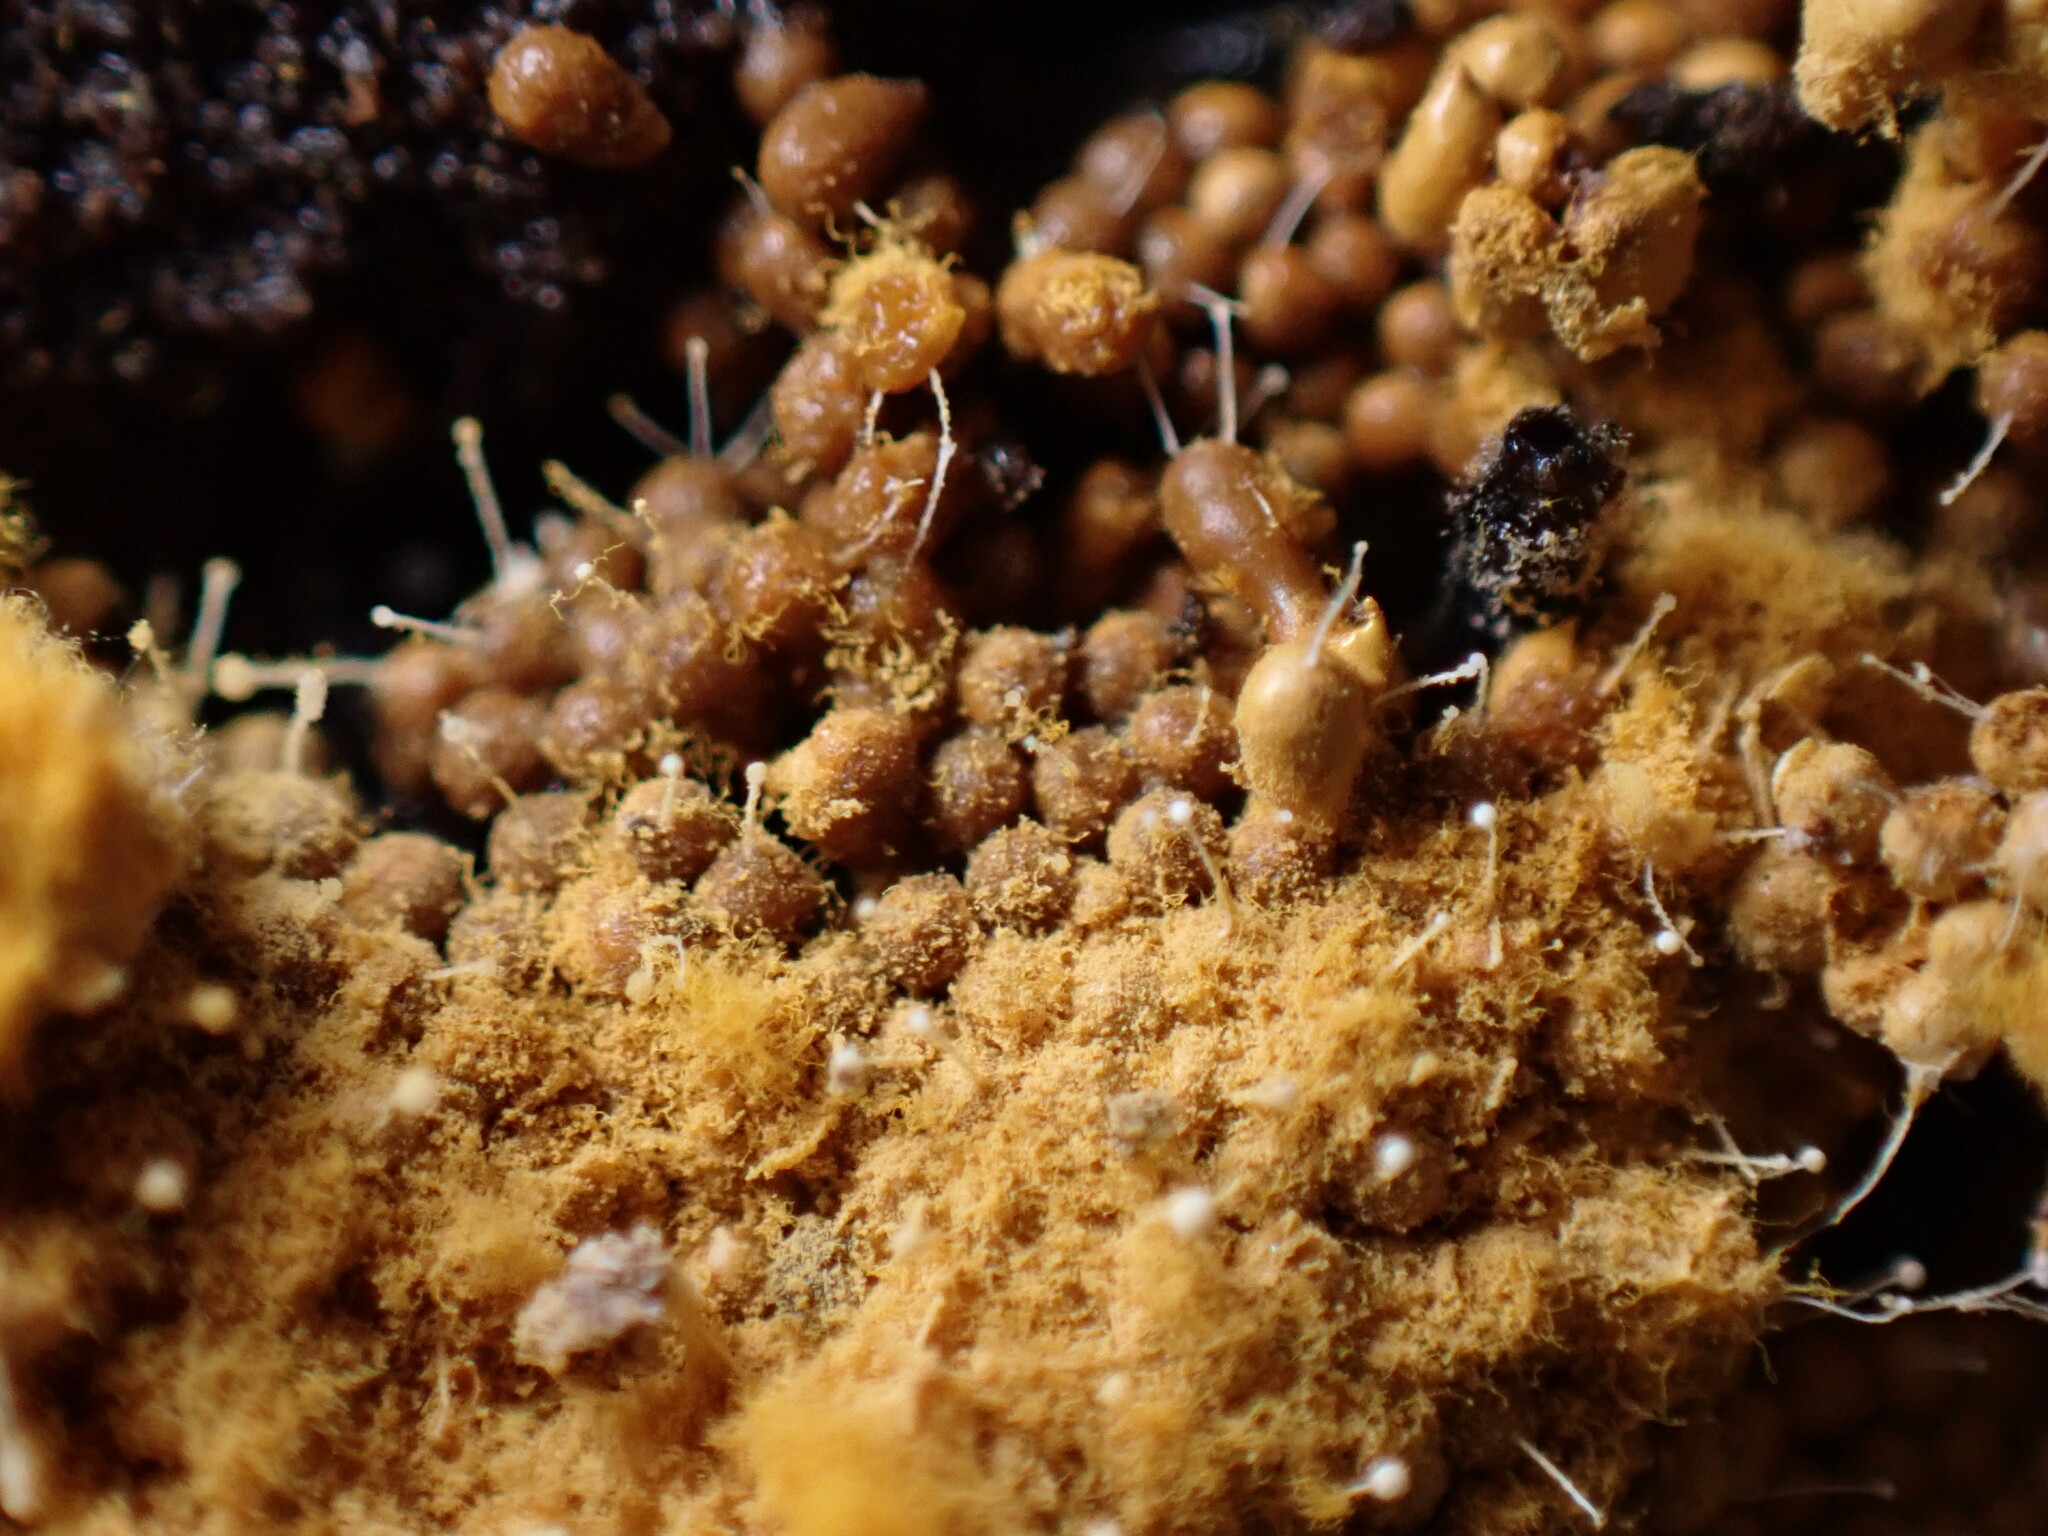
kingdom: Fungi
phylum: Ascomycota
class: Sordariomycetes
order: Hypocreales
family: Ophiocordycipitaceae
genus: Polycephalomyces
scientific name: Polycephalomyces tomentosus
